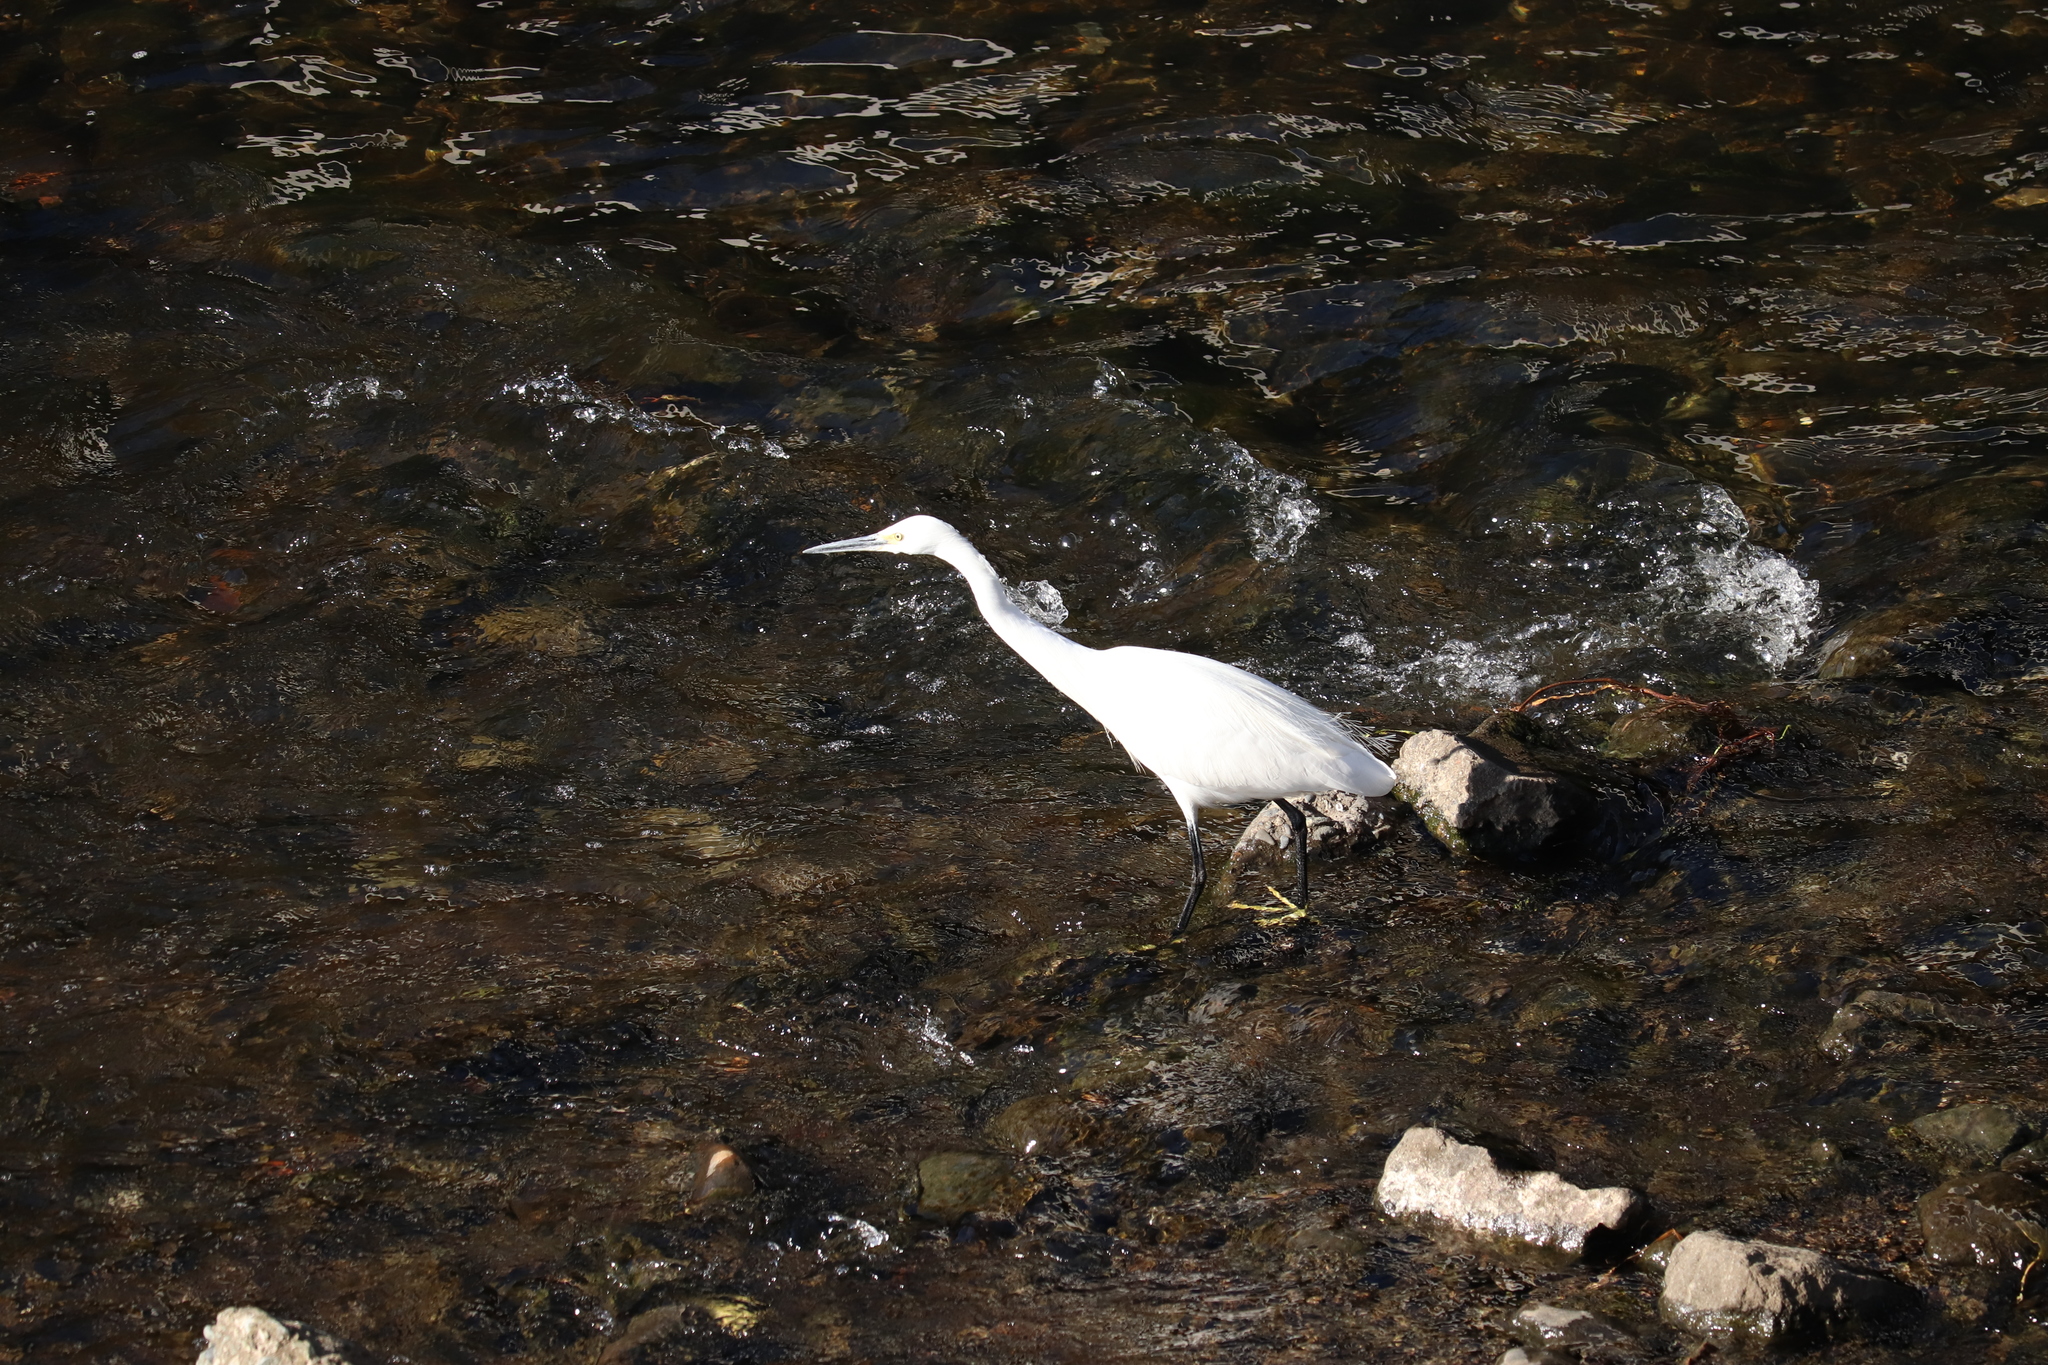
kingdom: Animalia
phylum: Chordata
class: Aves
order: Pelecaniformes
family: Ardeidae
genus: Egretta
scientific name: Egretta garzetta
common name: Little egret
